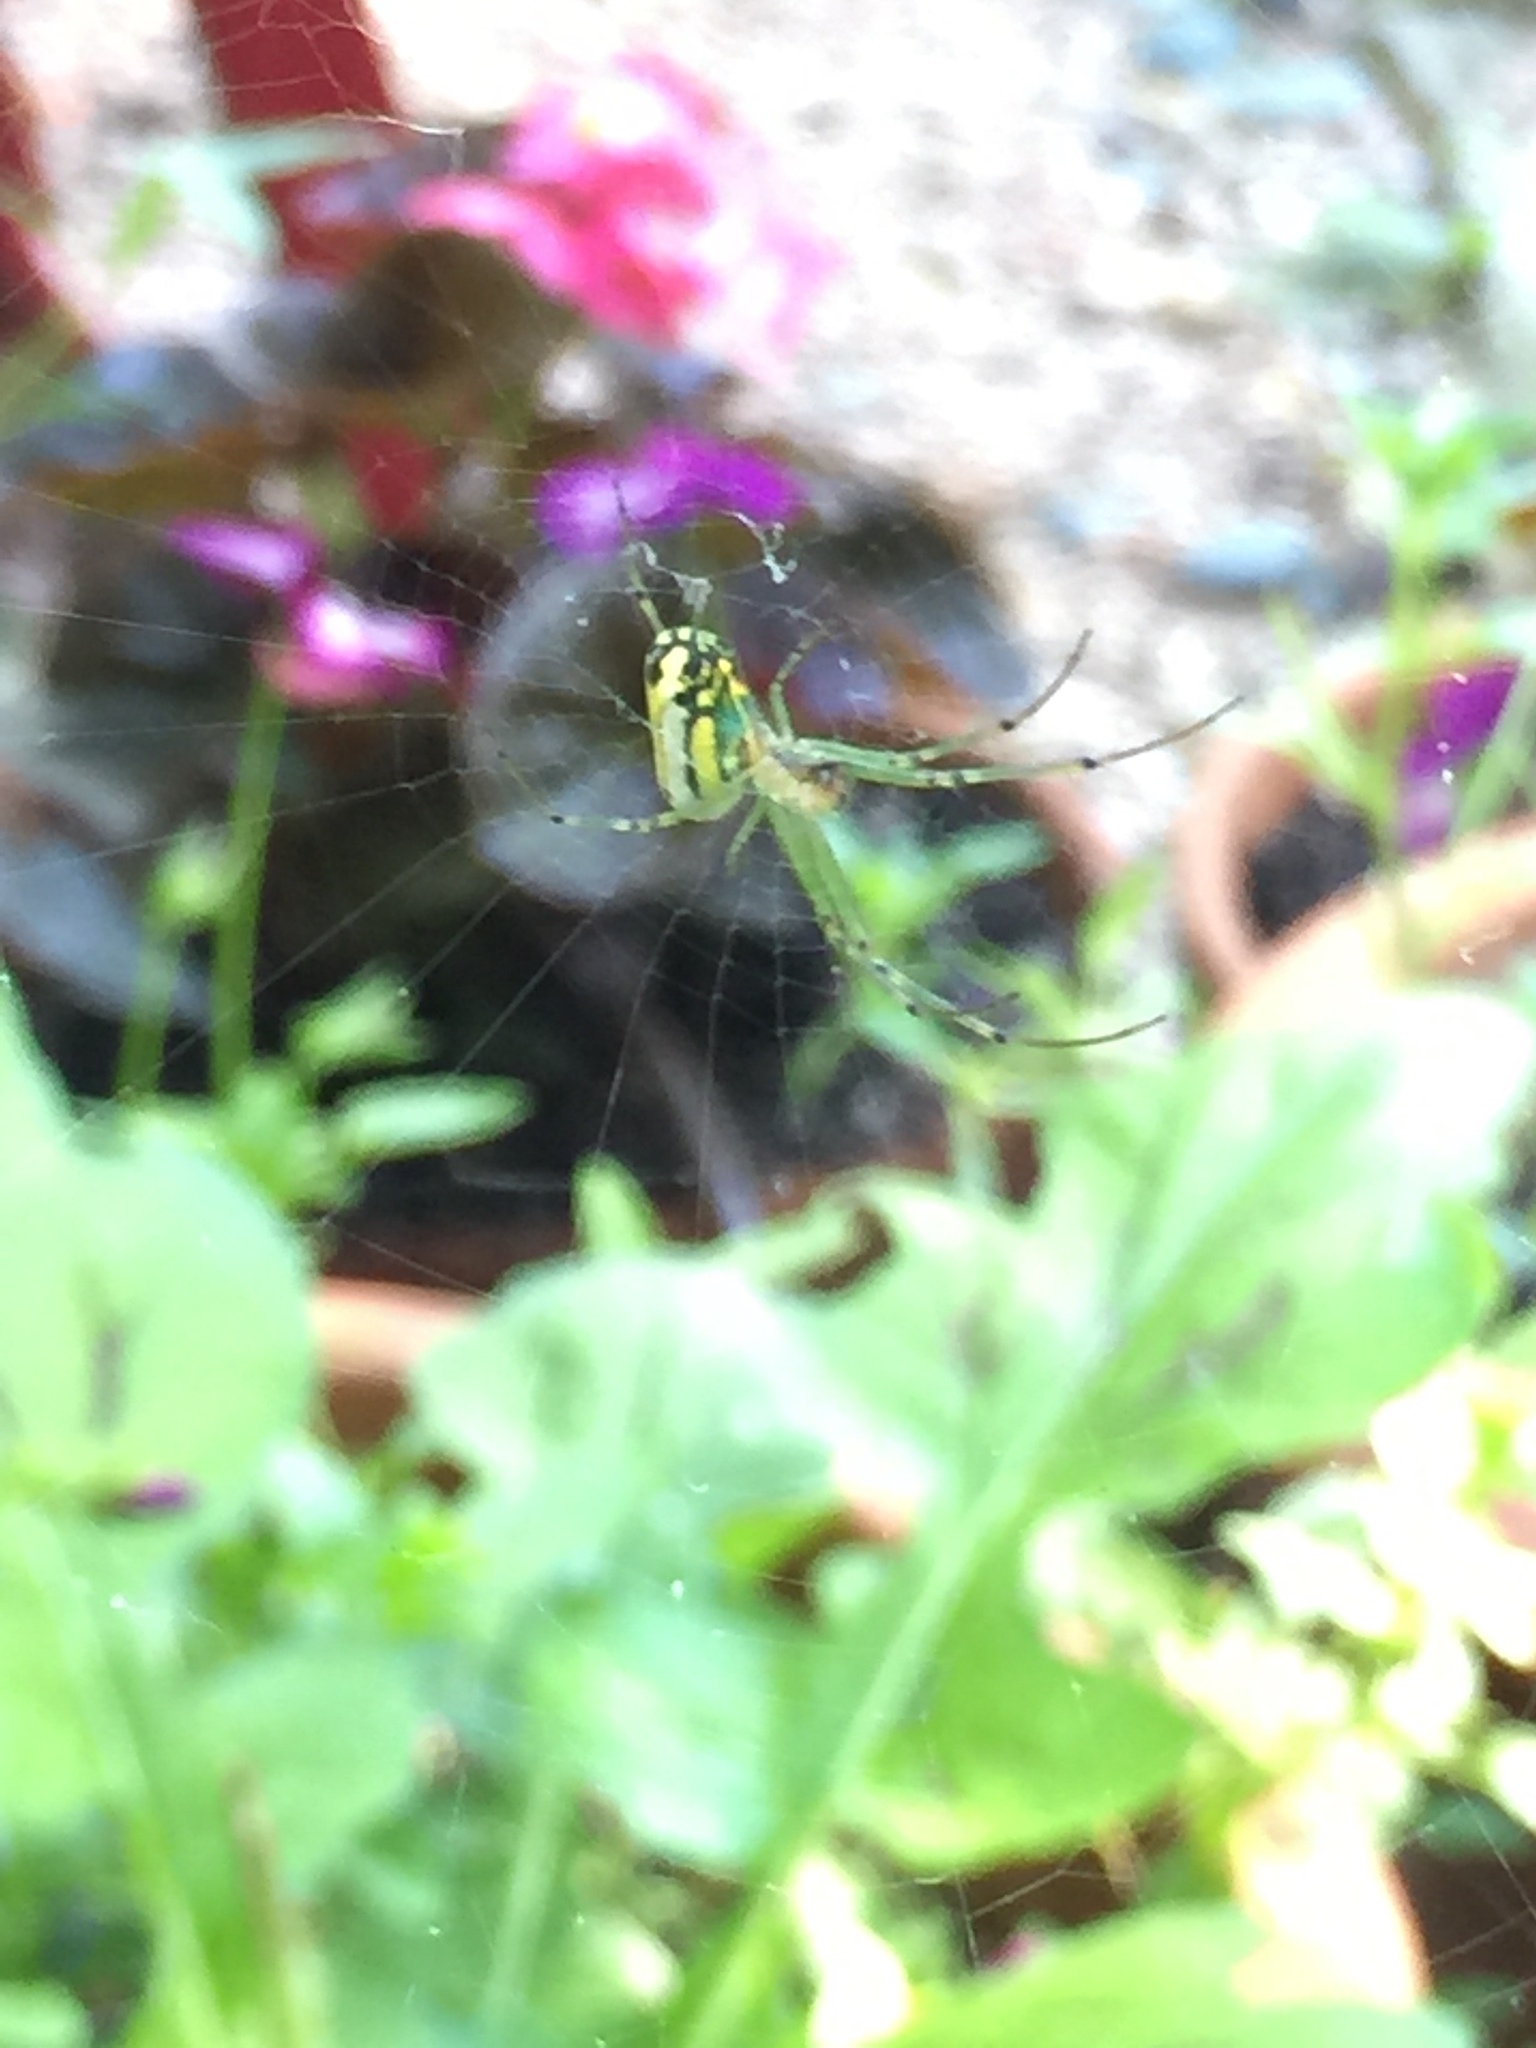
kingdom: Animalia
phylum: Arthropoda
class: Arachnida
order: Araneae
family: Tetragnathidae
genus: Leucauge
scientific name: Leucauge venusta
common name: Longjawed orb weavers
